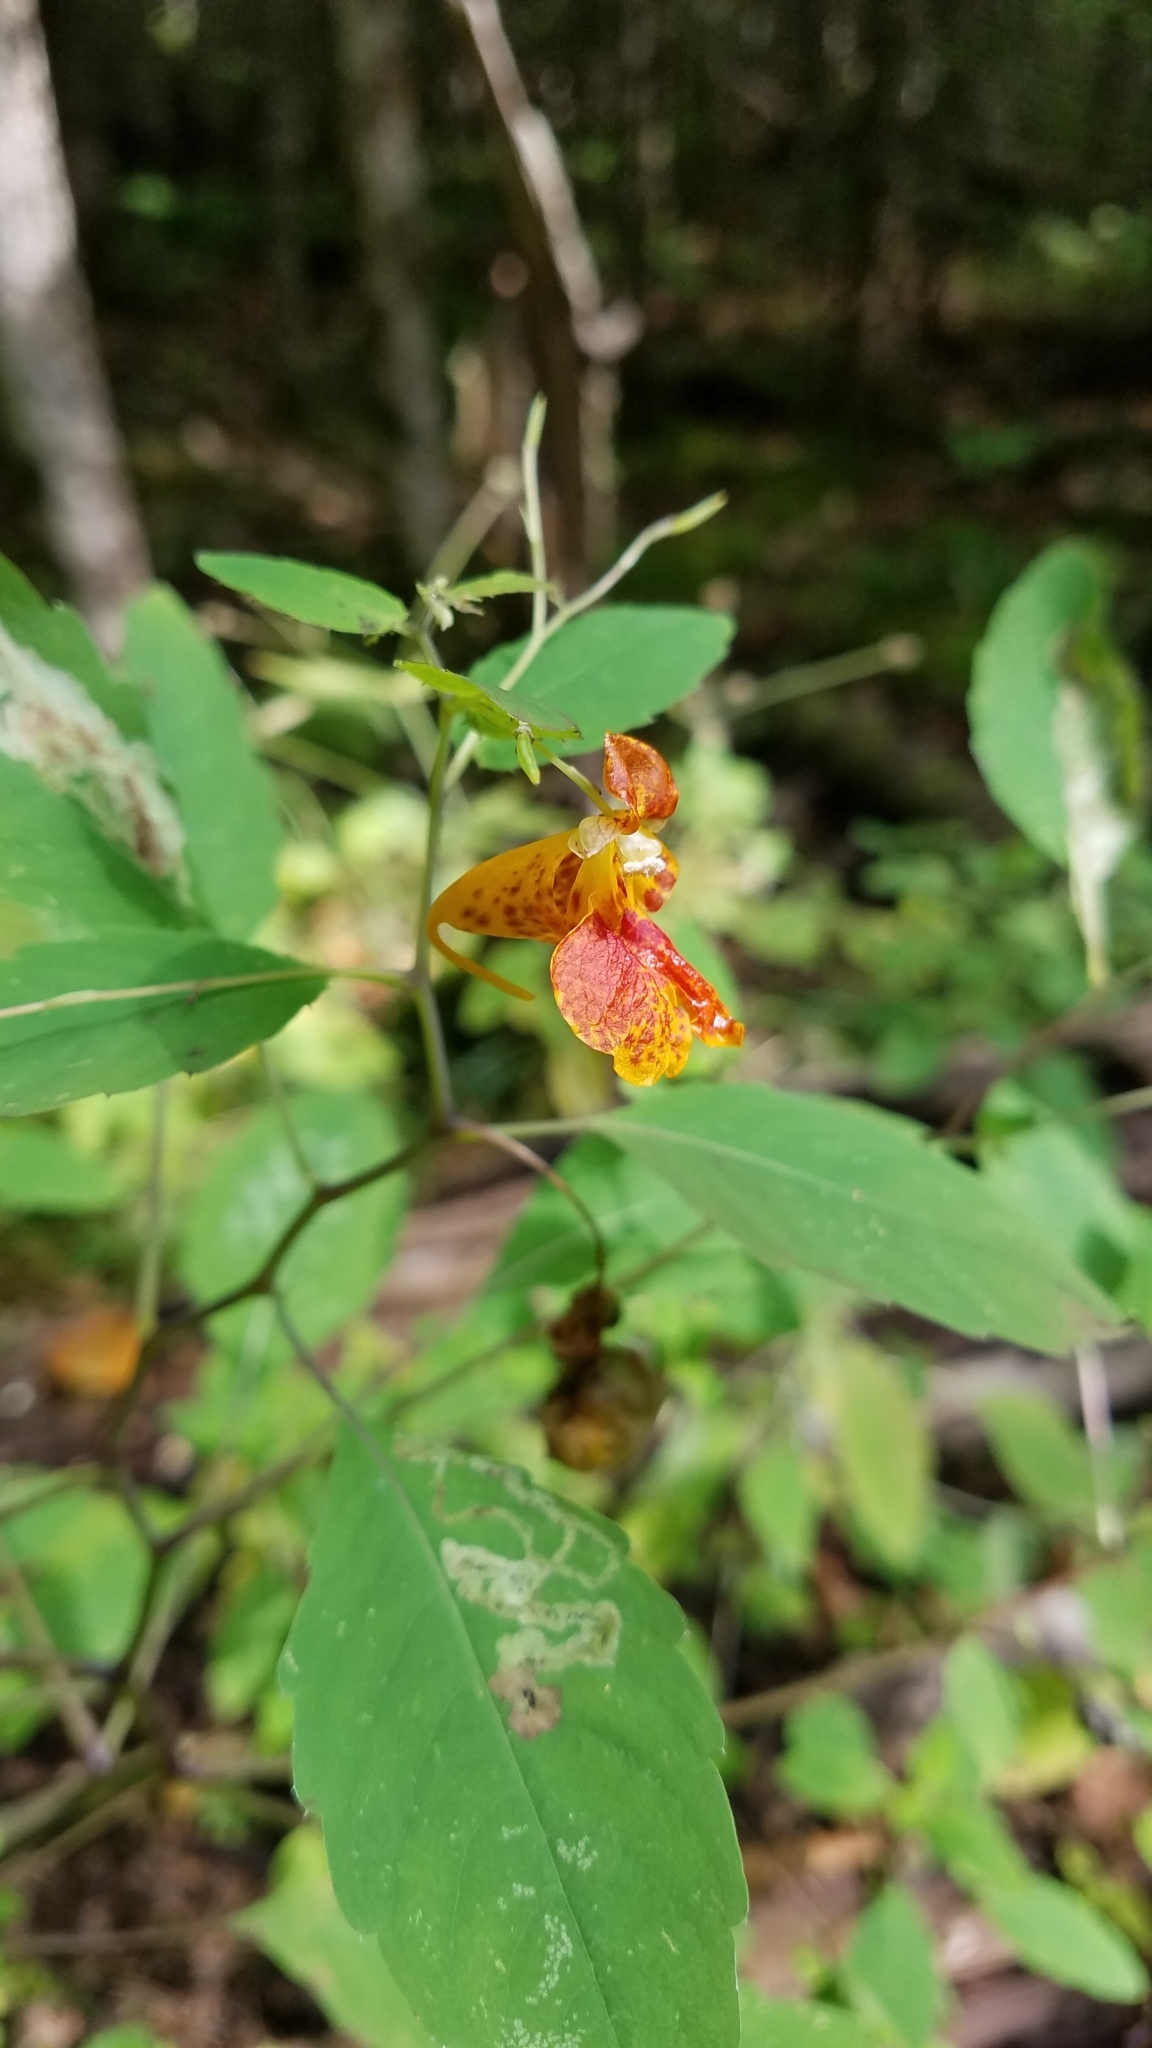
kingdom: Plantae
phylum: Tracheophyta
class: Magnoliopsida
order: Ericales
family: Balsaminaceae
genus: Impatiens
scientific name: Impatiens capensis
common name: Orange balsam
